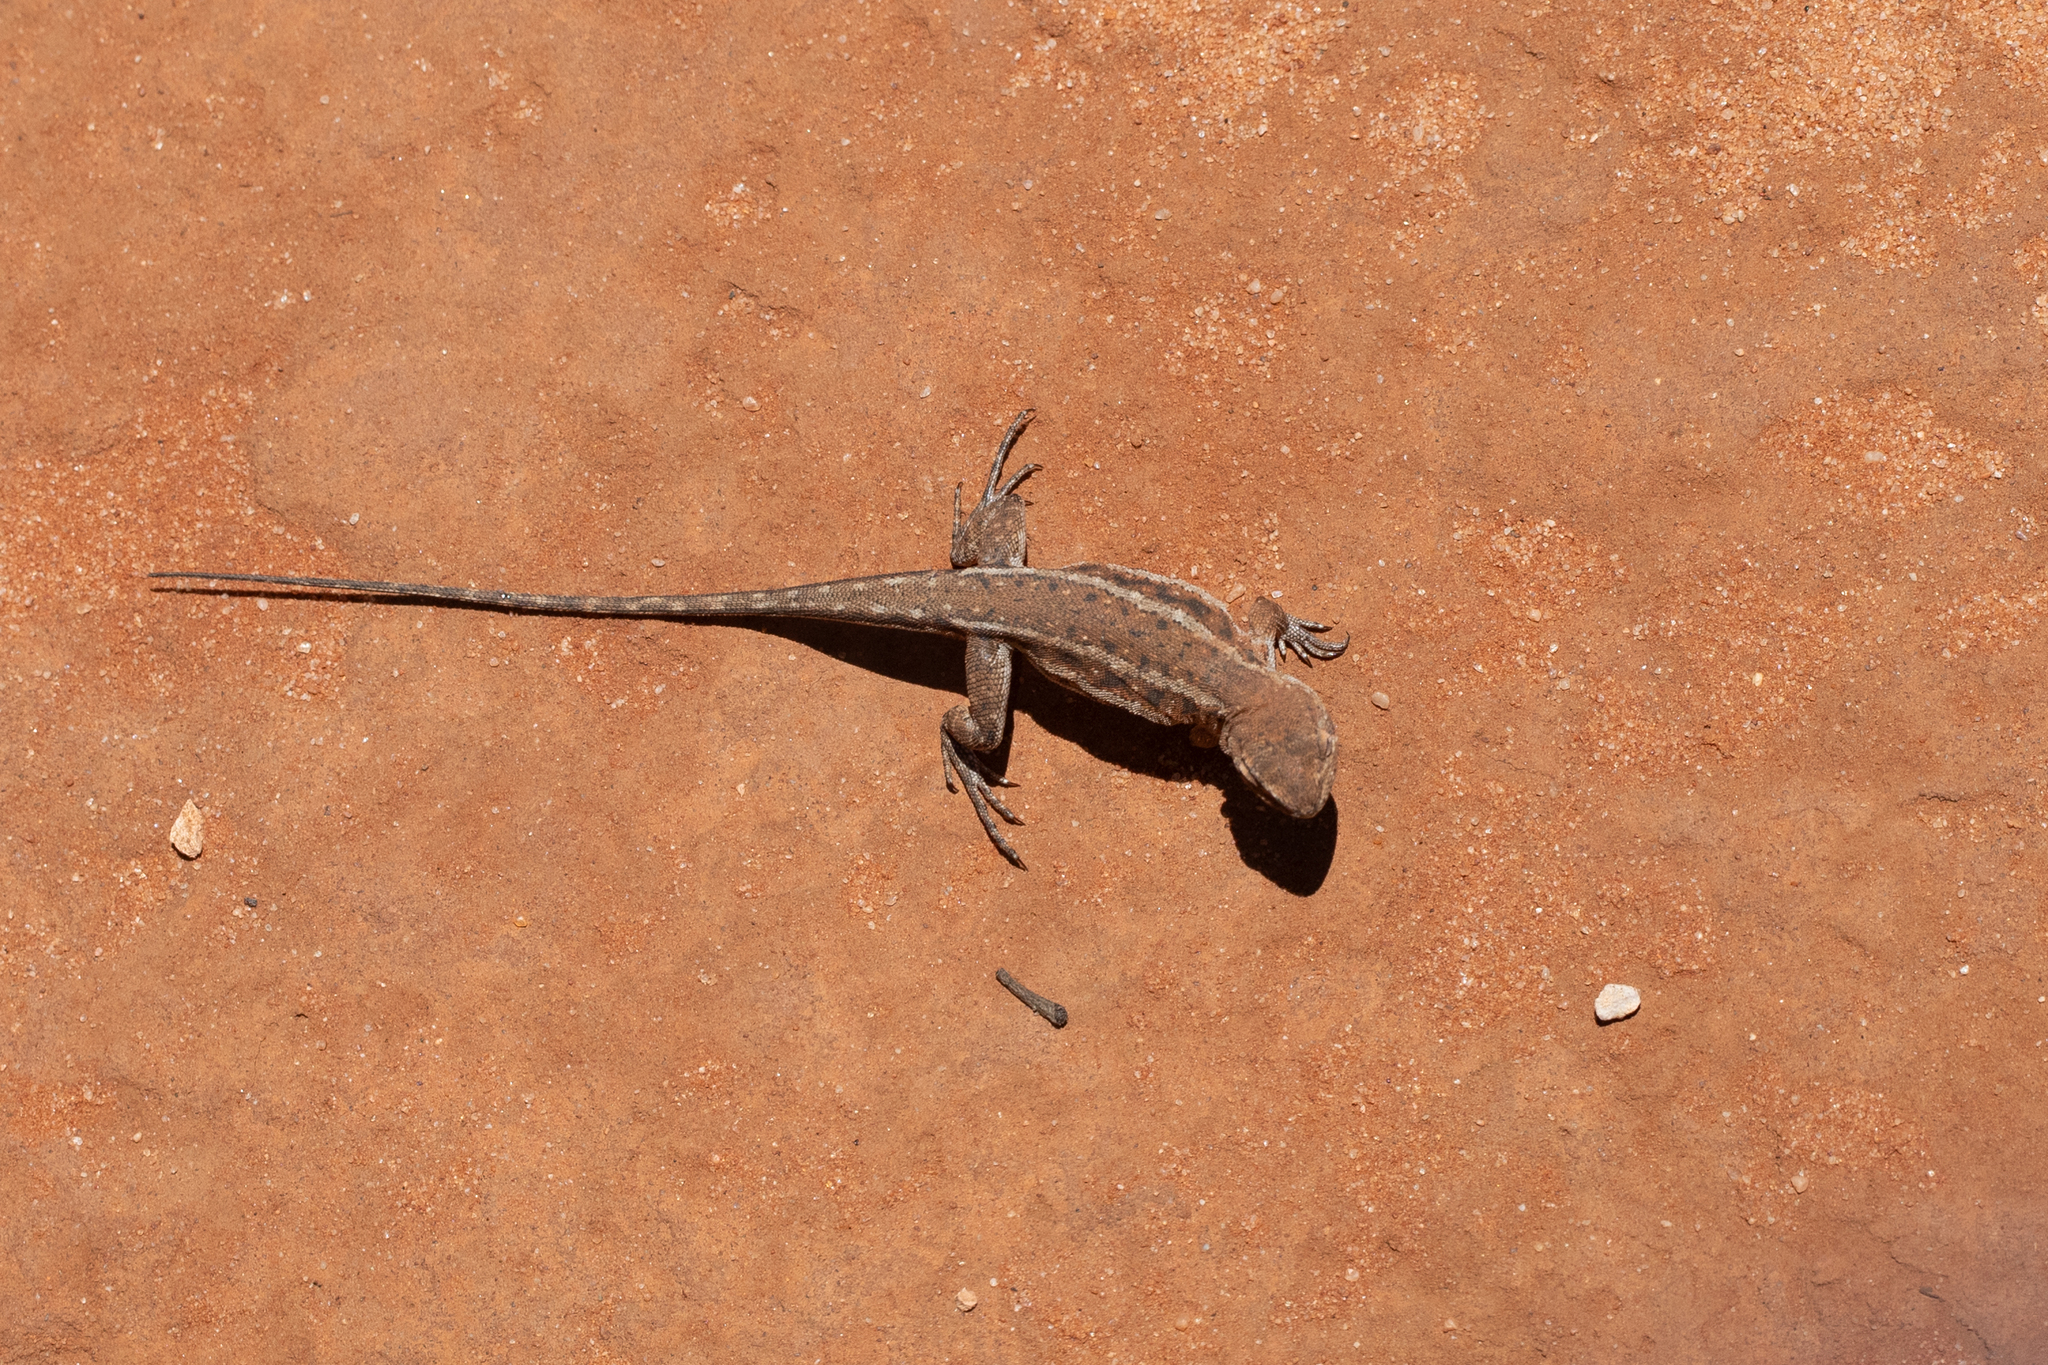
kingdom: Animalia
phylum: Chordata
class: Squamata
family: Agamidae
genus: Ctenophorus
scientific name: Ctenophorus spinodomus
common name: Eastern mallee dragon
